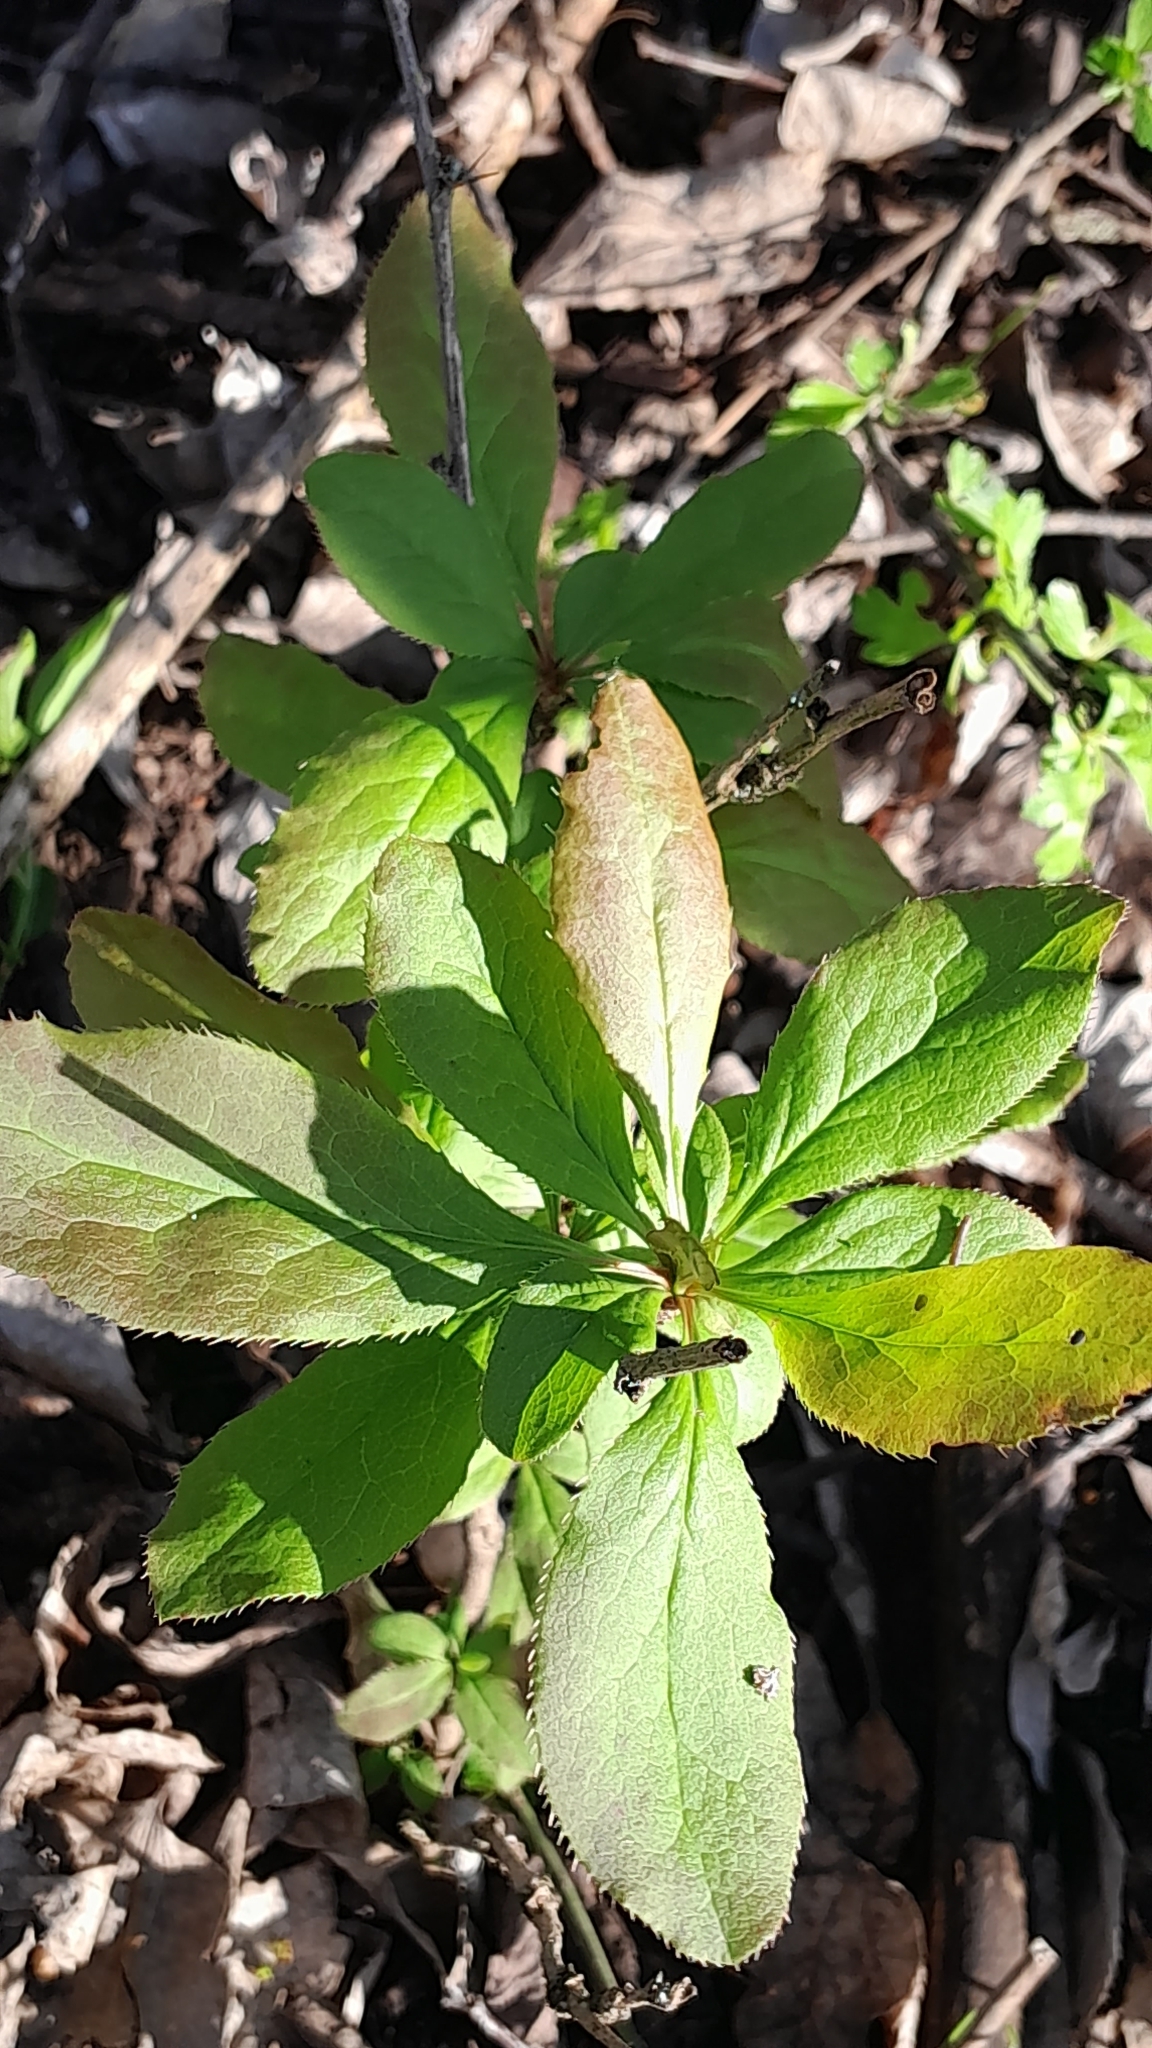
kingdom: Plantae
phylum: Tracheophyta
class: Magnoliopsida
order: Ranunculales
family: Berberidaceae
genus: Berberis
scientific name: Berberis vulgaris
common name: Barberry
